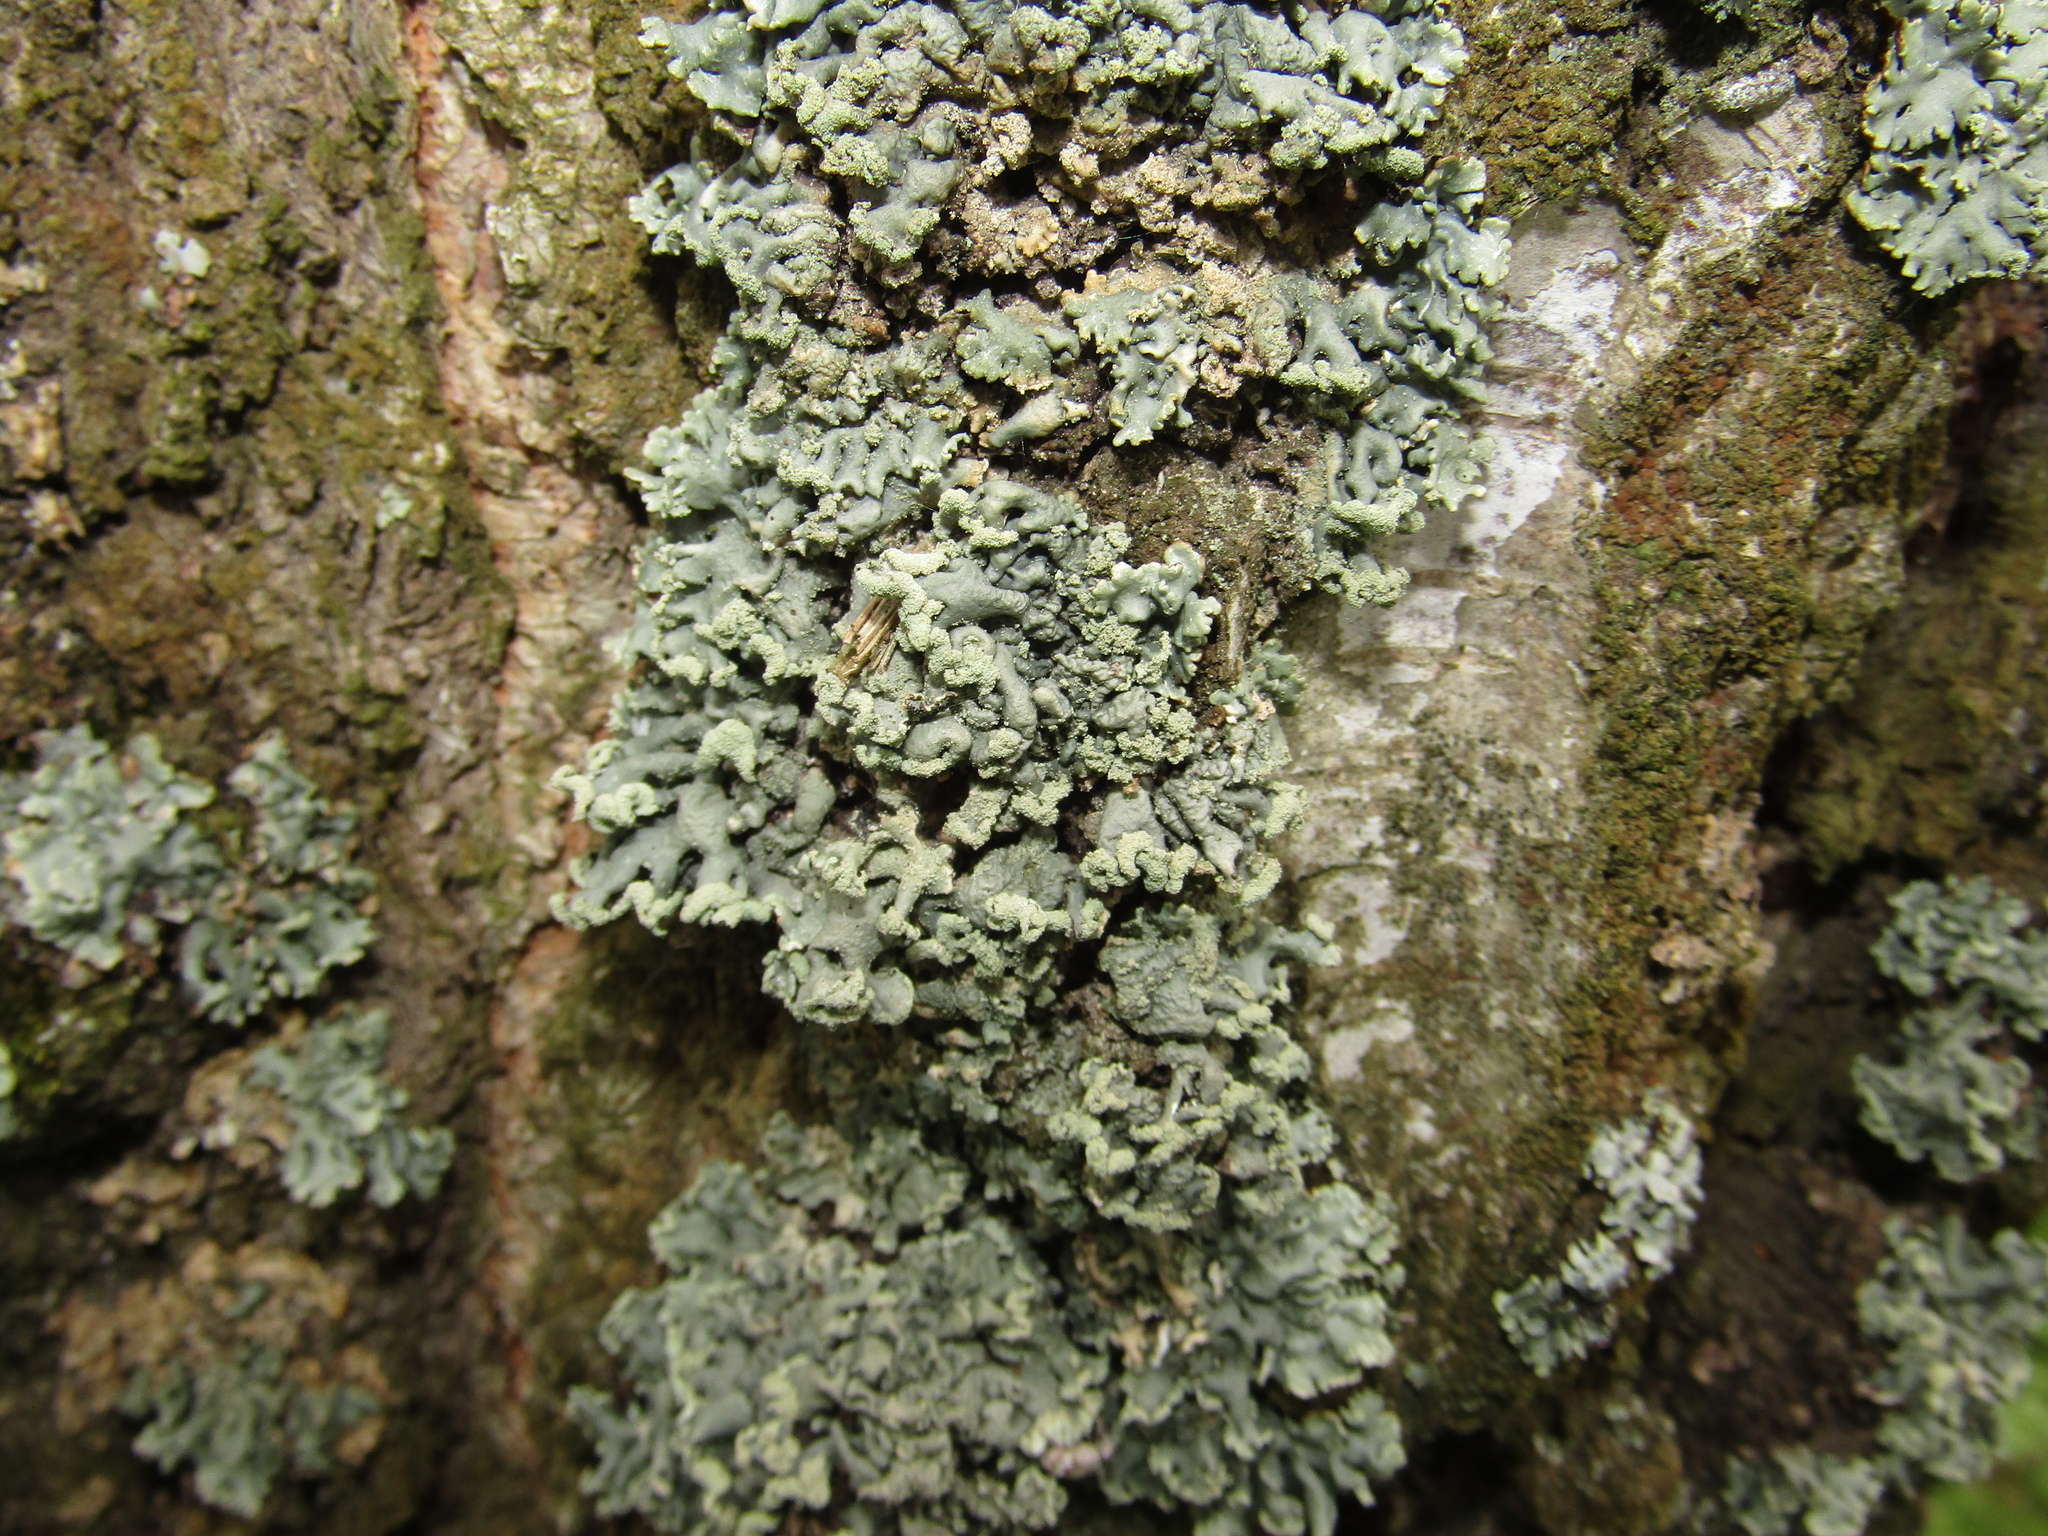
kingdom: Fungi
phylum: Ascomycota
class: Lecanoromycetes
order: Lecanorales
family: Parmeliaceae
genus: Hypogymnia
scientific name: Hypogymnia physodes
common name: Dark crottle
